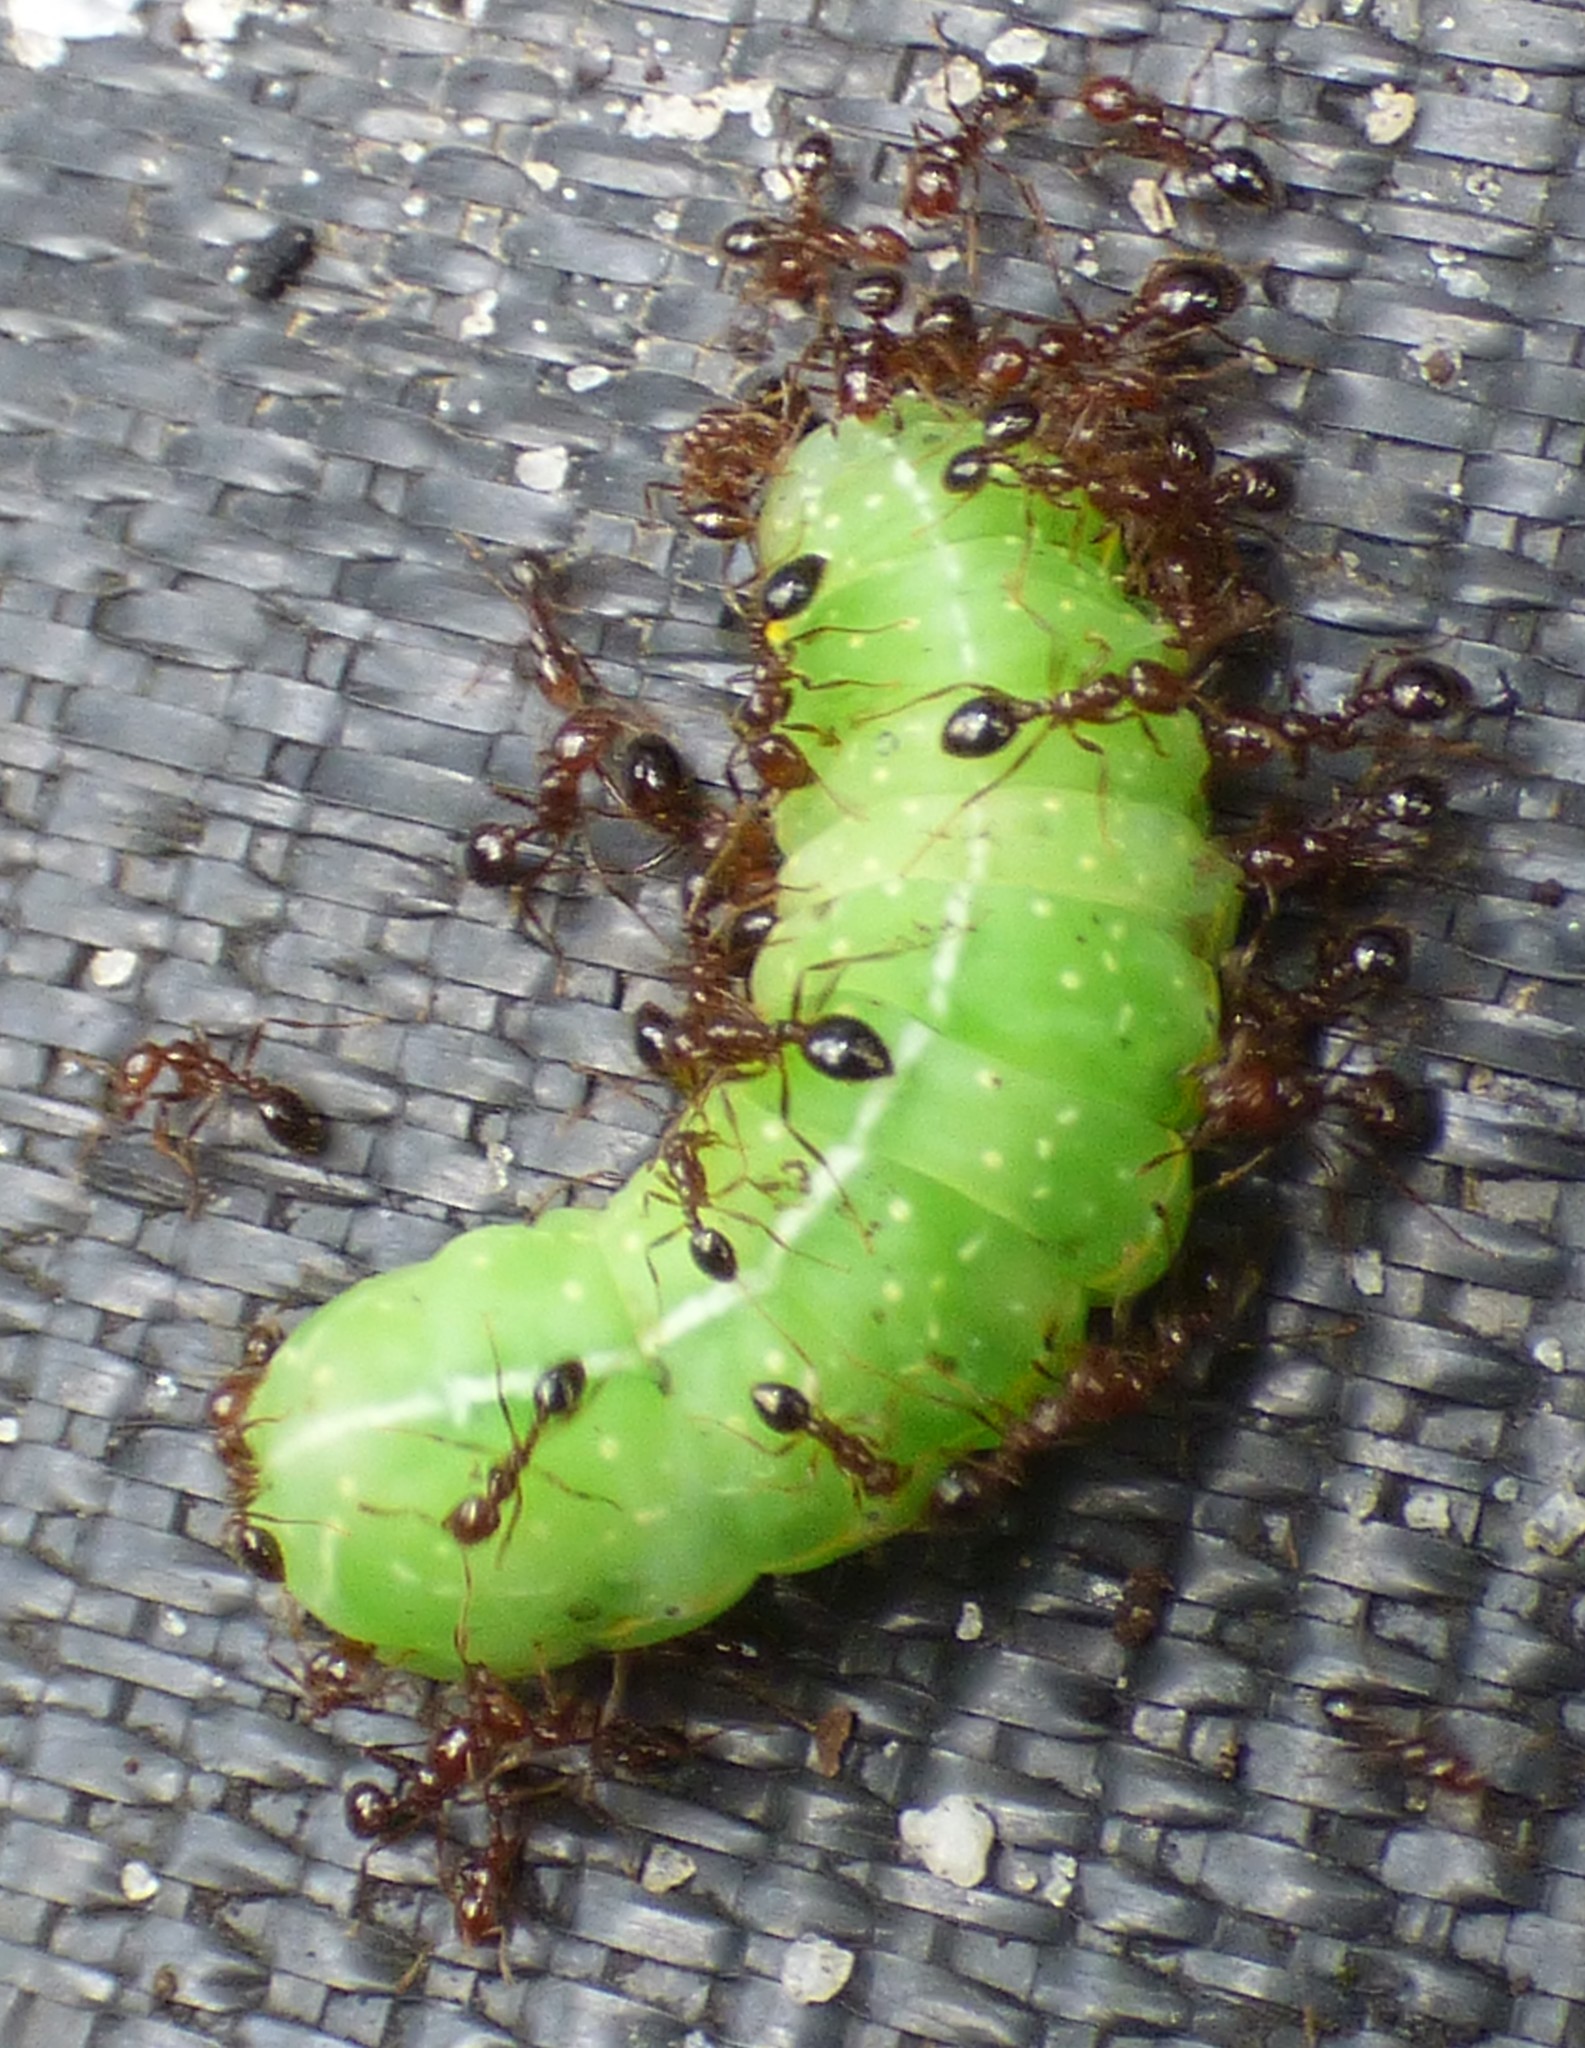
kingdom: Animalia
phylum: Arthropoda
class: Insecta
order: Hymenoptera
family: Formicidae
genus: Solenopsis
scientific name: Solenopsis invicta
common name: Red imported fire ant
